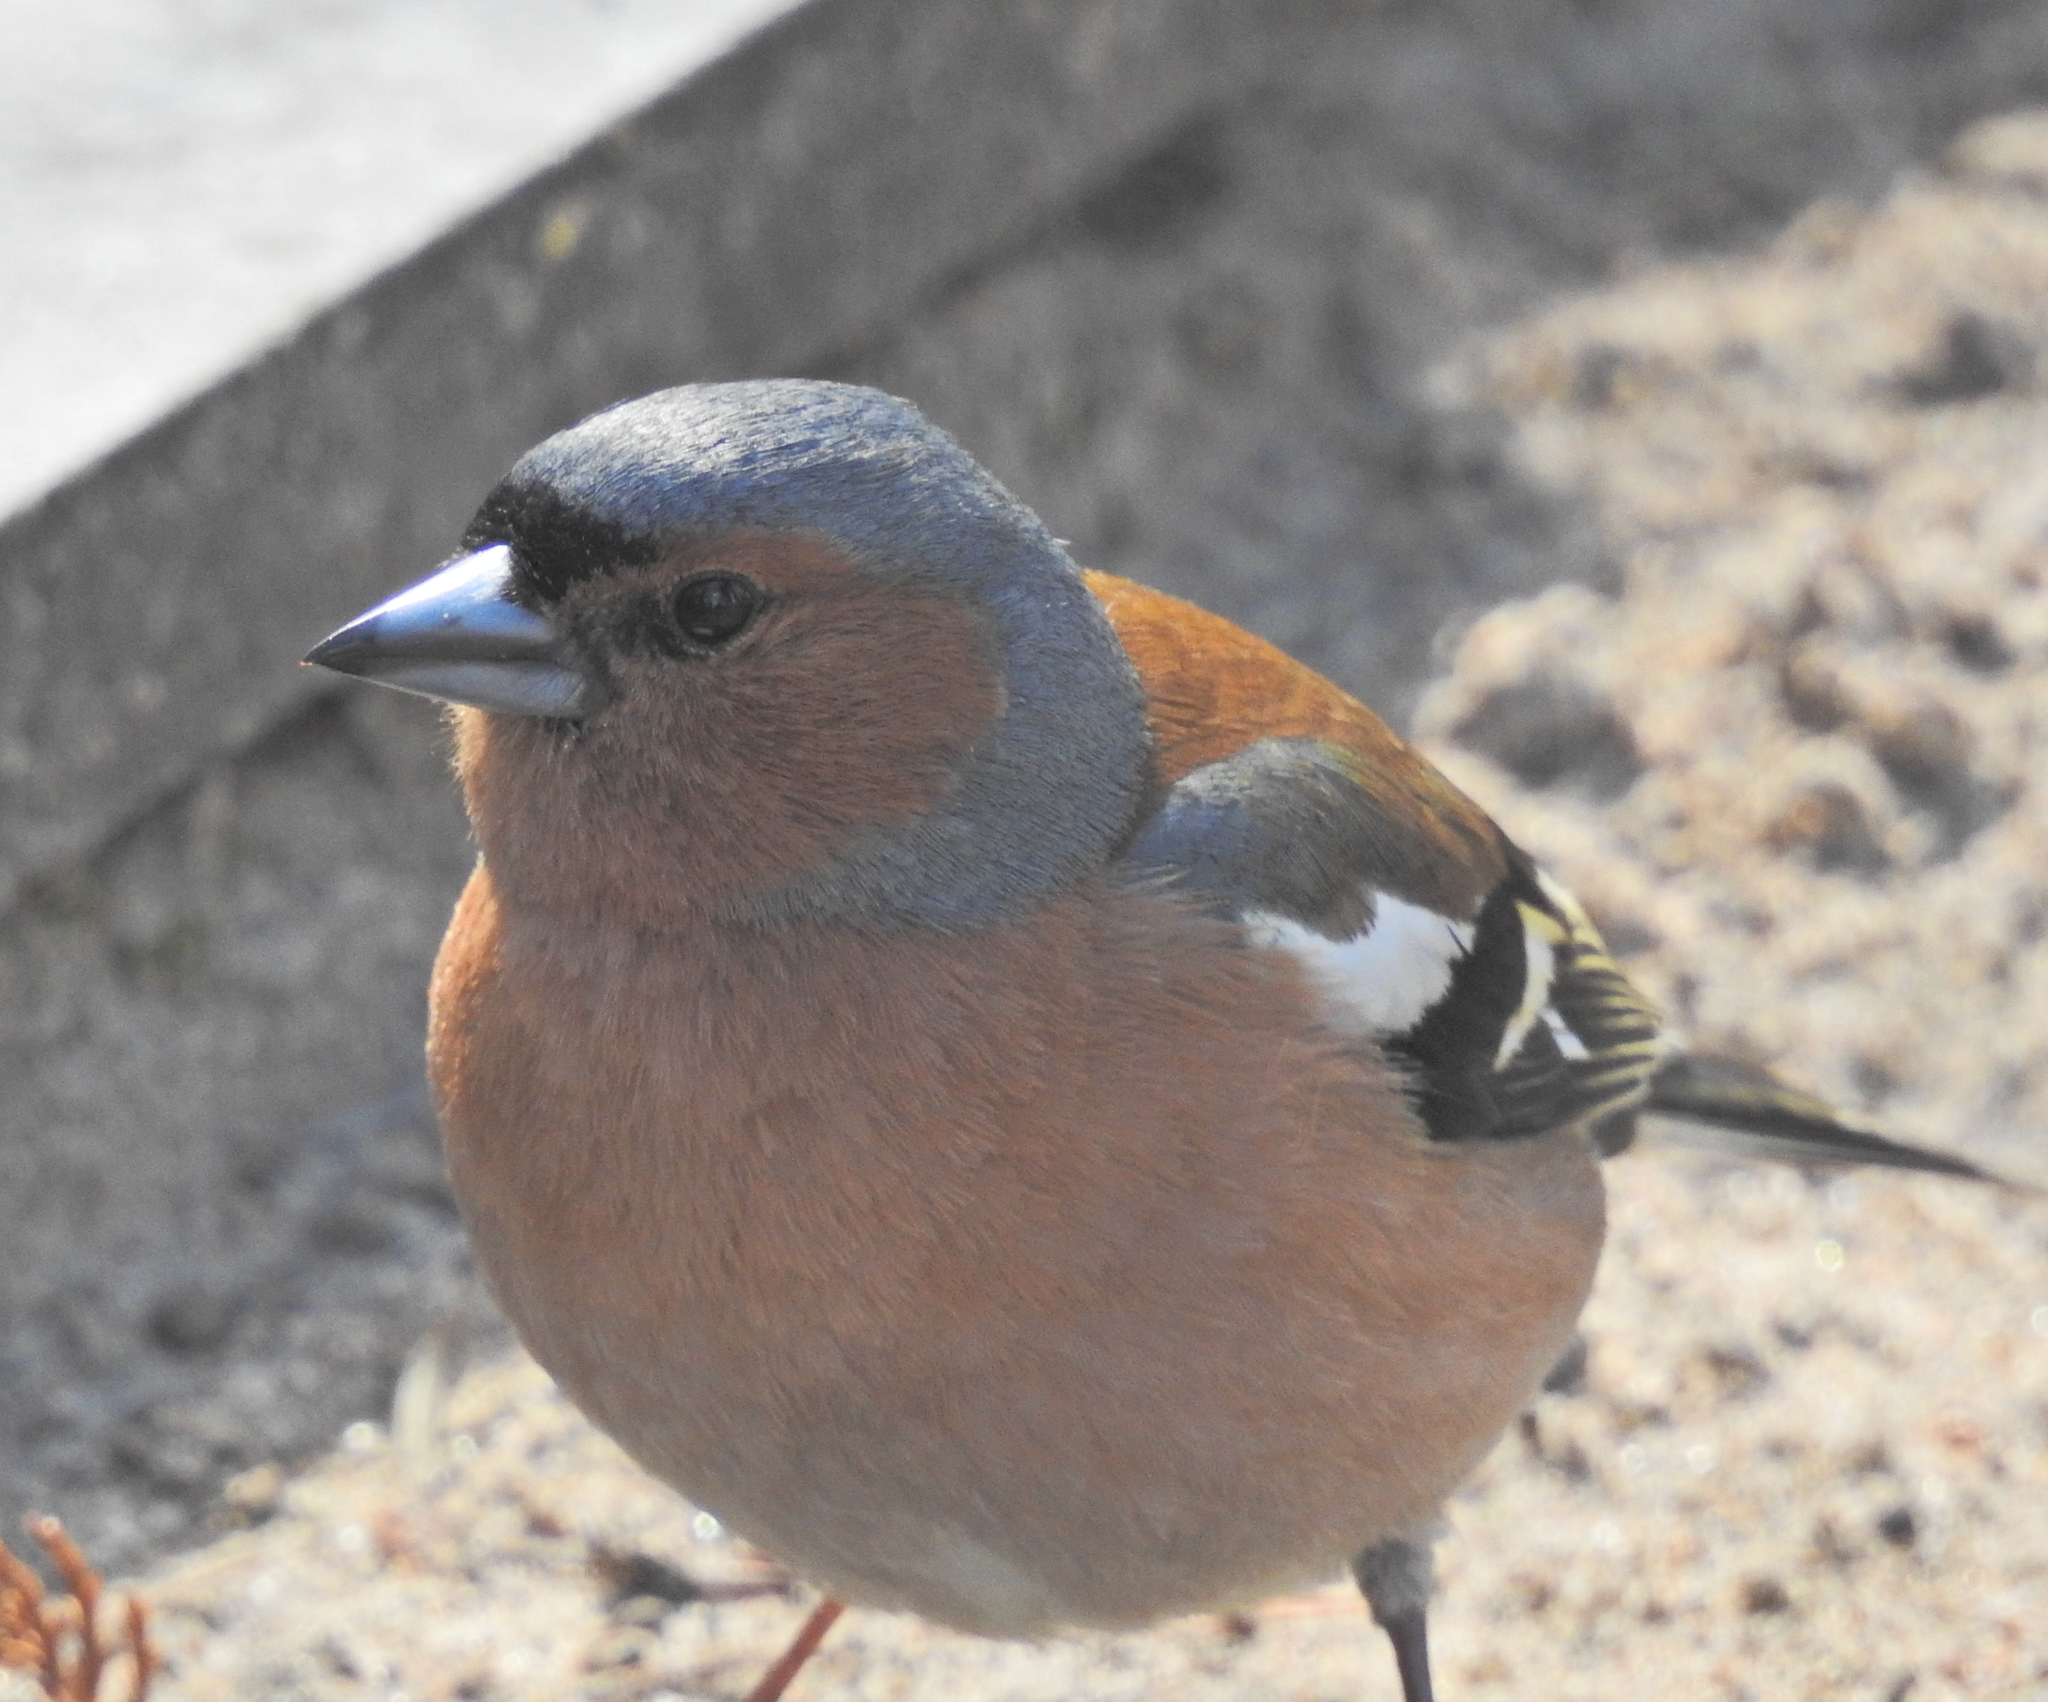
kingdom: Animalia
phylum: Chordata
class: Aves
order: Passeriformes
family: Fringillidae
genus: Fringilla
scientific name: Fringilla coelebs
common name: Common chaffinch
